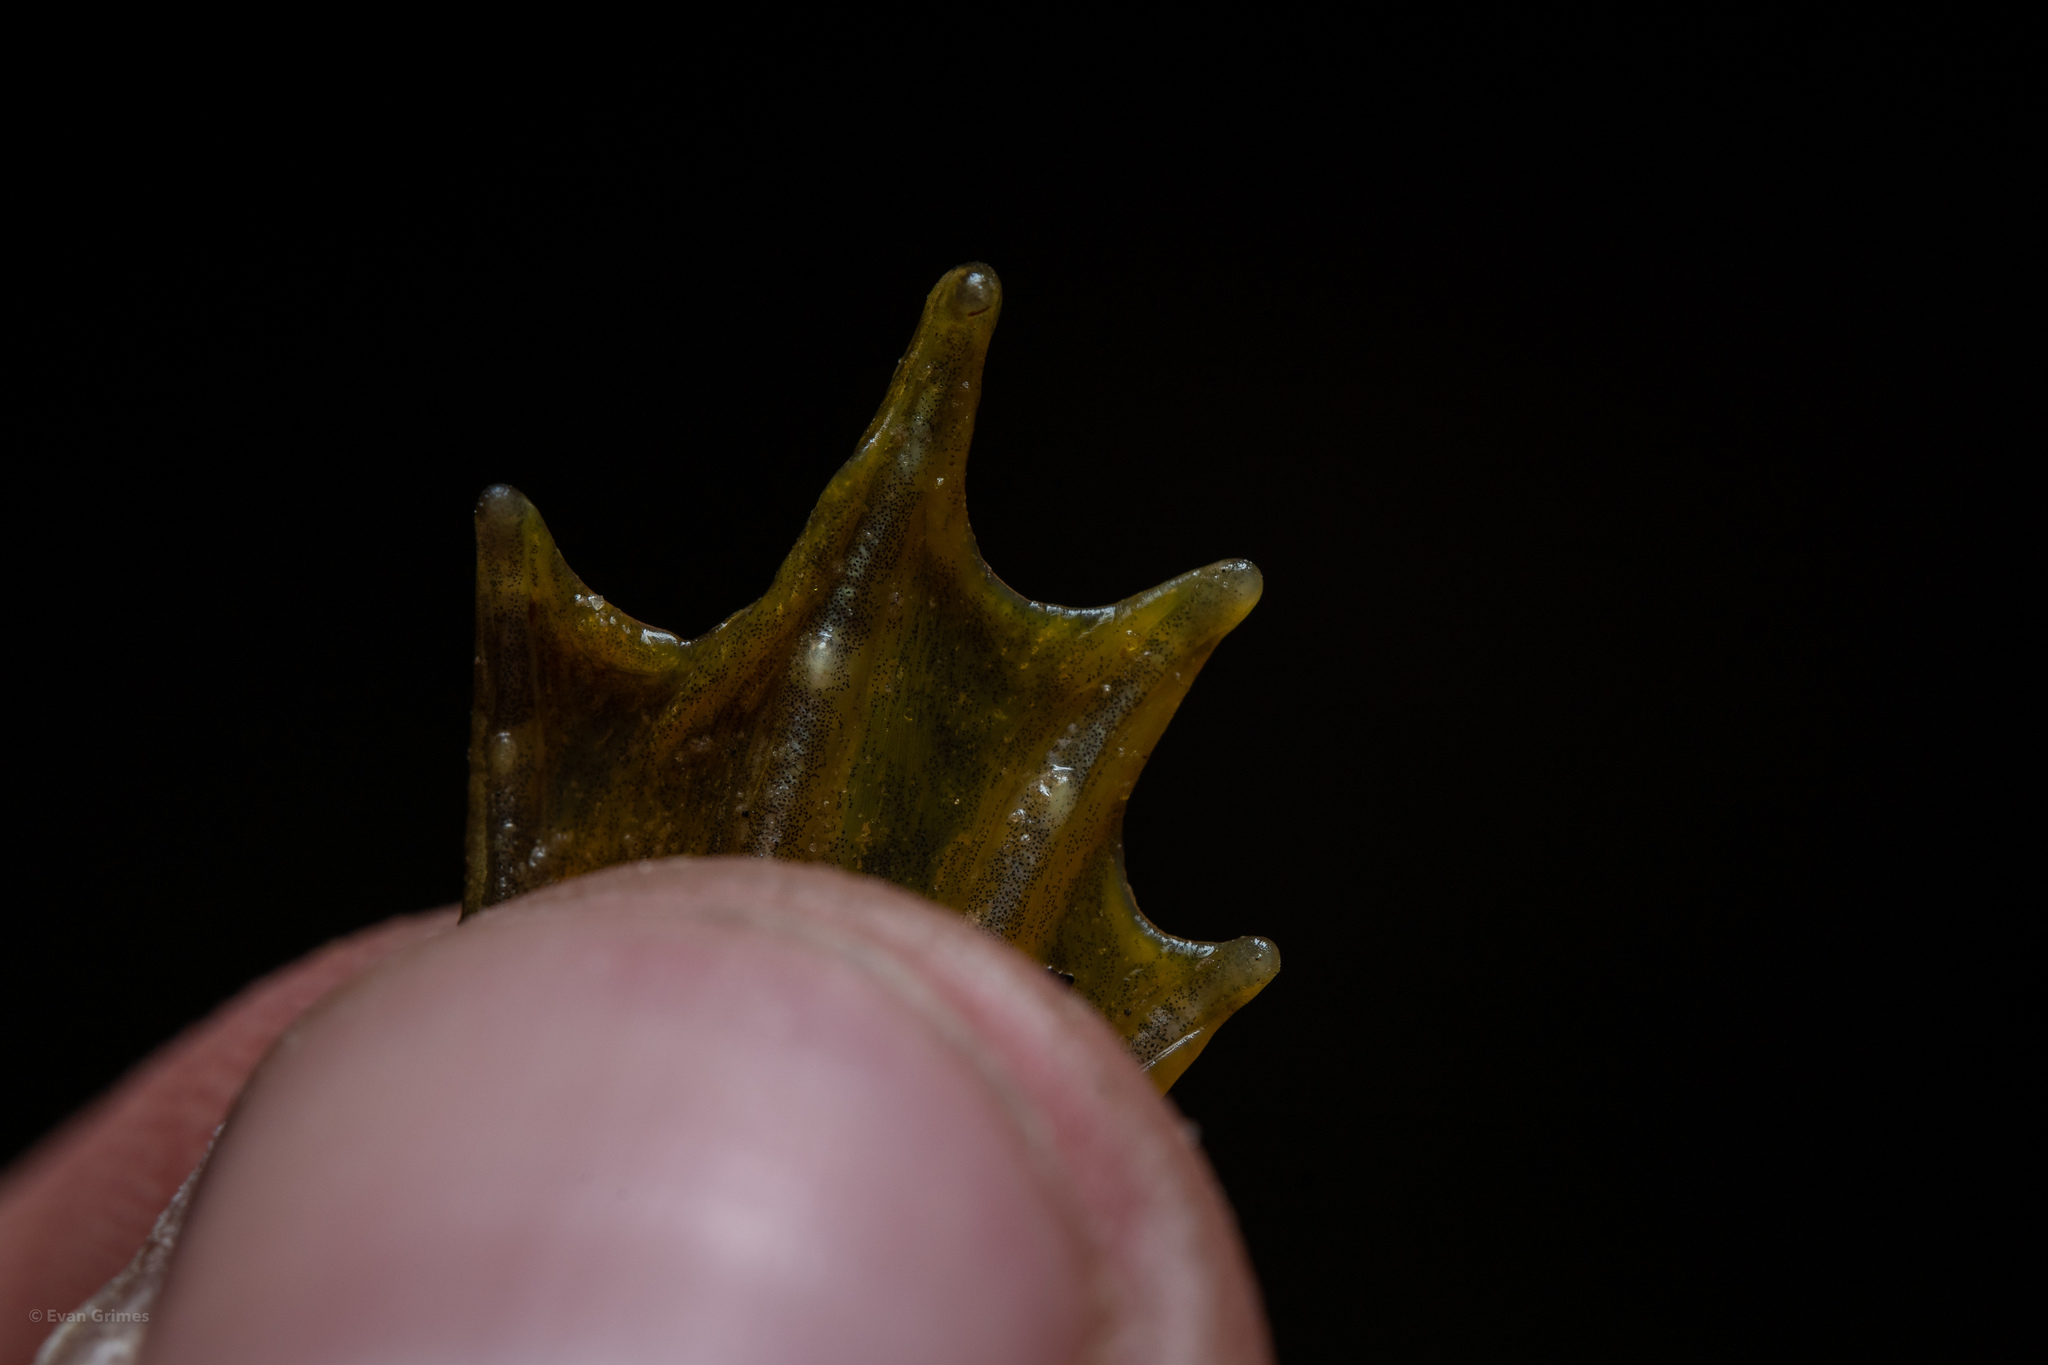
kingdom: Animalia
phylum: Chordata
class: Amphibia
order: Anura
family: Ranidae
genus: Lithobates
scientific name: Lithobates catesbeianus
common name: American bullfrog
